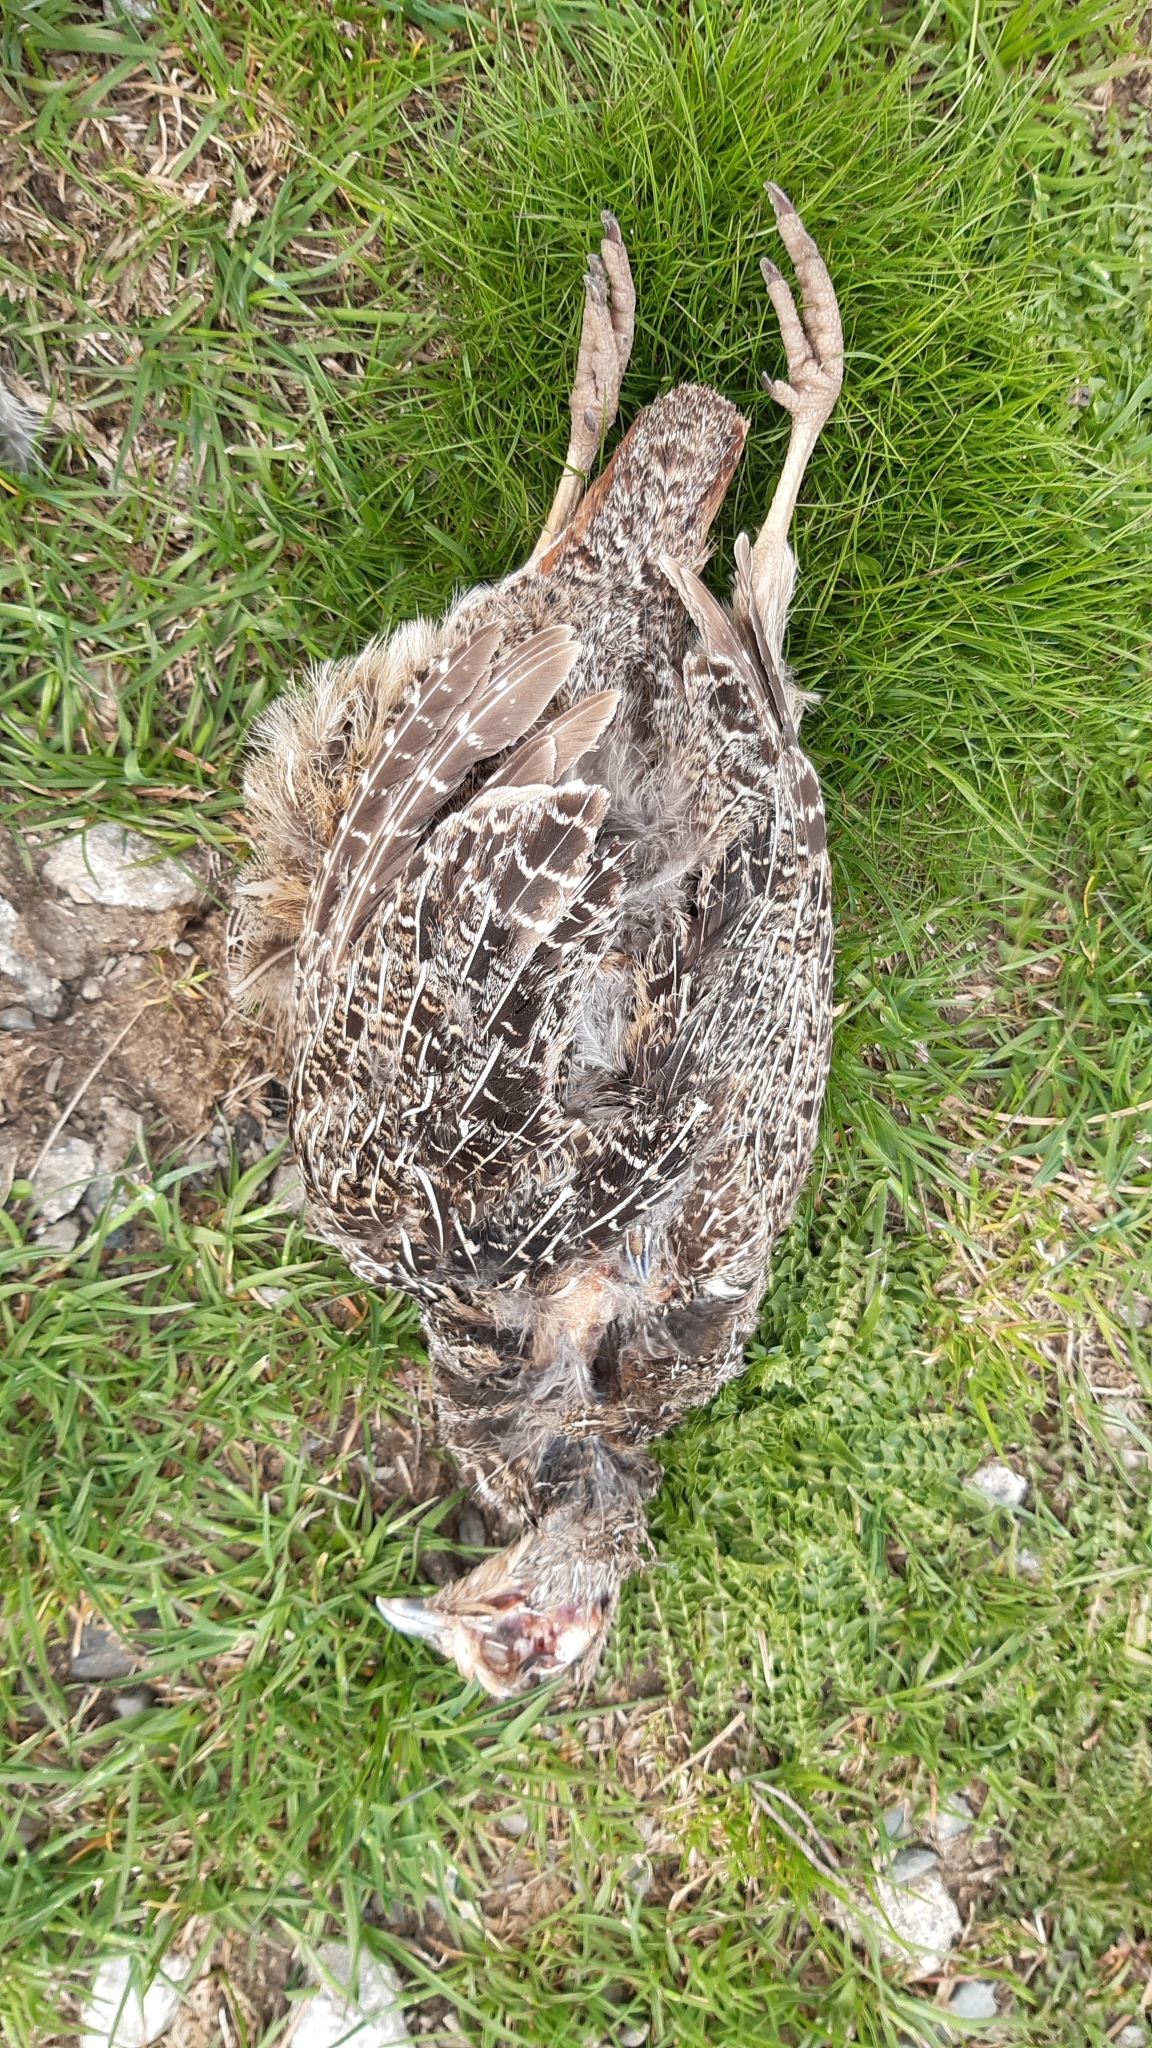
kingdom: Animalia
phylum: Chordata
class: Aves
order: Galliformes
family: Phasianidae
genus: Phasianus
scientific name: Phasianus colchicus
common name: Common pheasant
